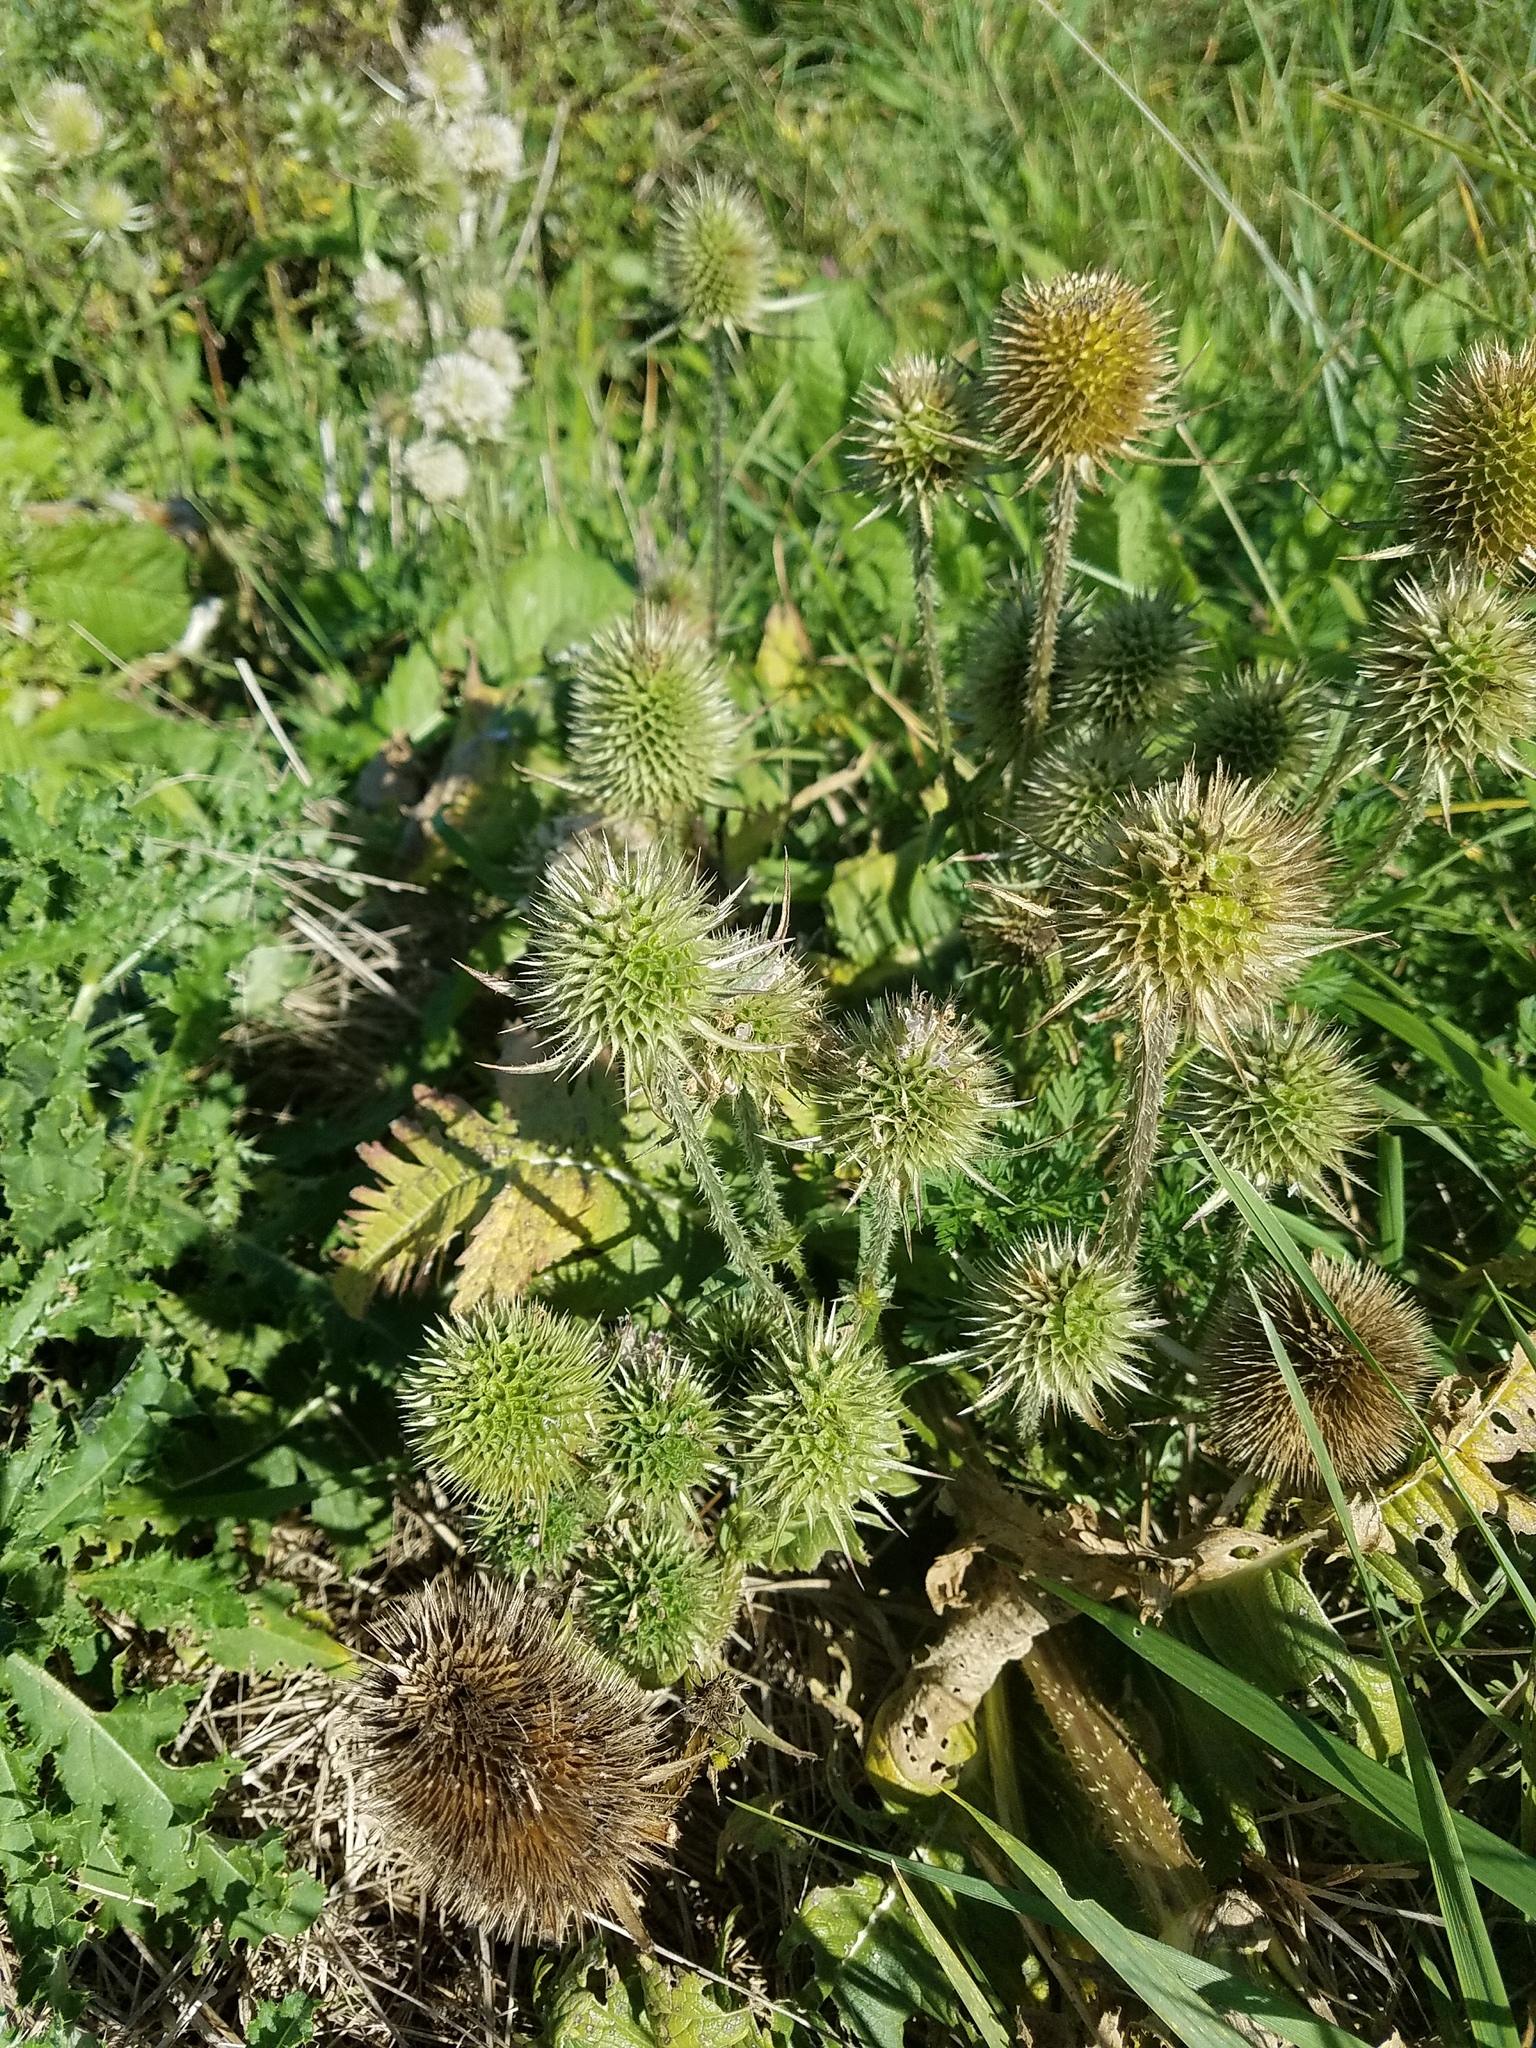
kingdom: Plantae
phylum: Tracheophyta
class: Magnoliopsida
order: Dipsacales
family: Caprifoliaceae
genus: Dipsacus
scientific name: Dipsacus laciniatus
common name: Cut-leaved teasel
